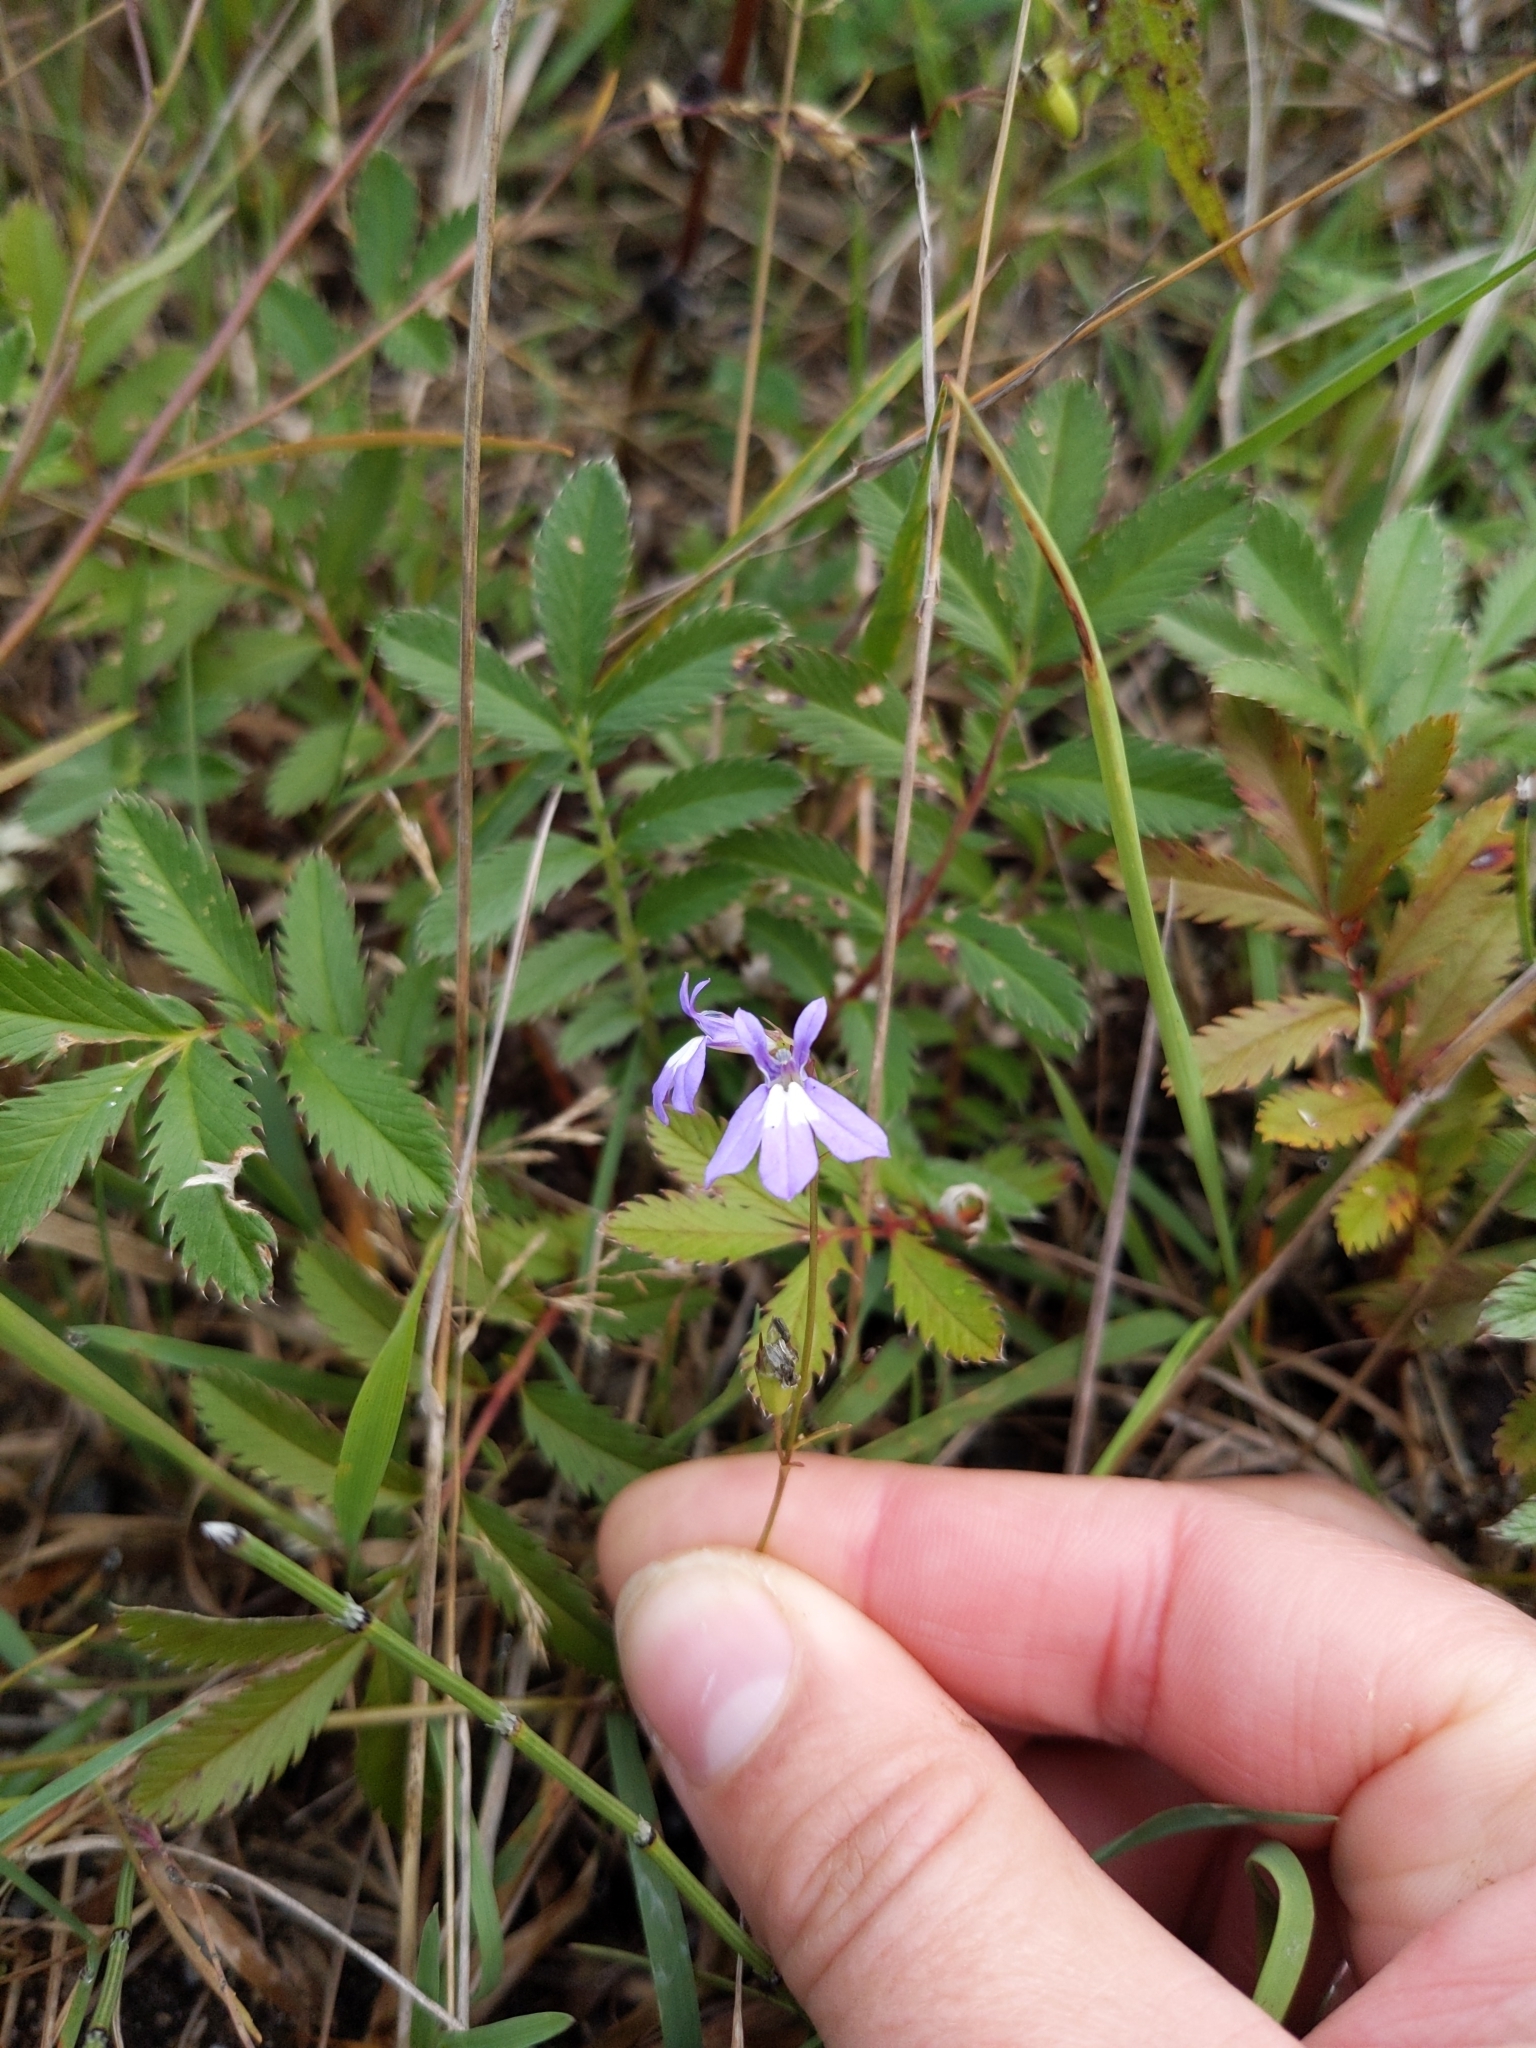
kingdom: Plantae
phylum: Tracheophyta
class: Magnoliopsida
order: Asterales
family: Campanulaceae
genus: Lobelia
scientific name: Lobelia kalmii
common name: Kalm's lobelia
